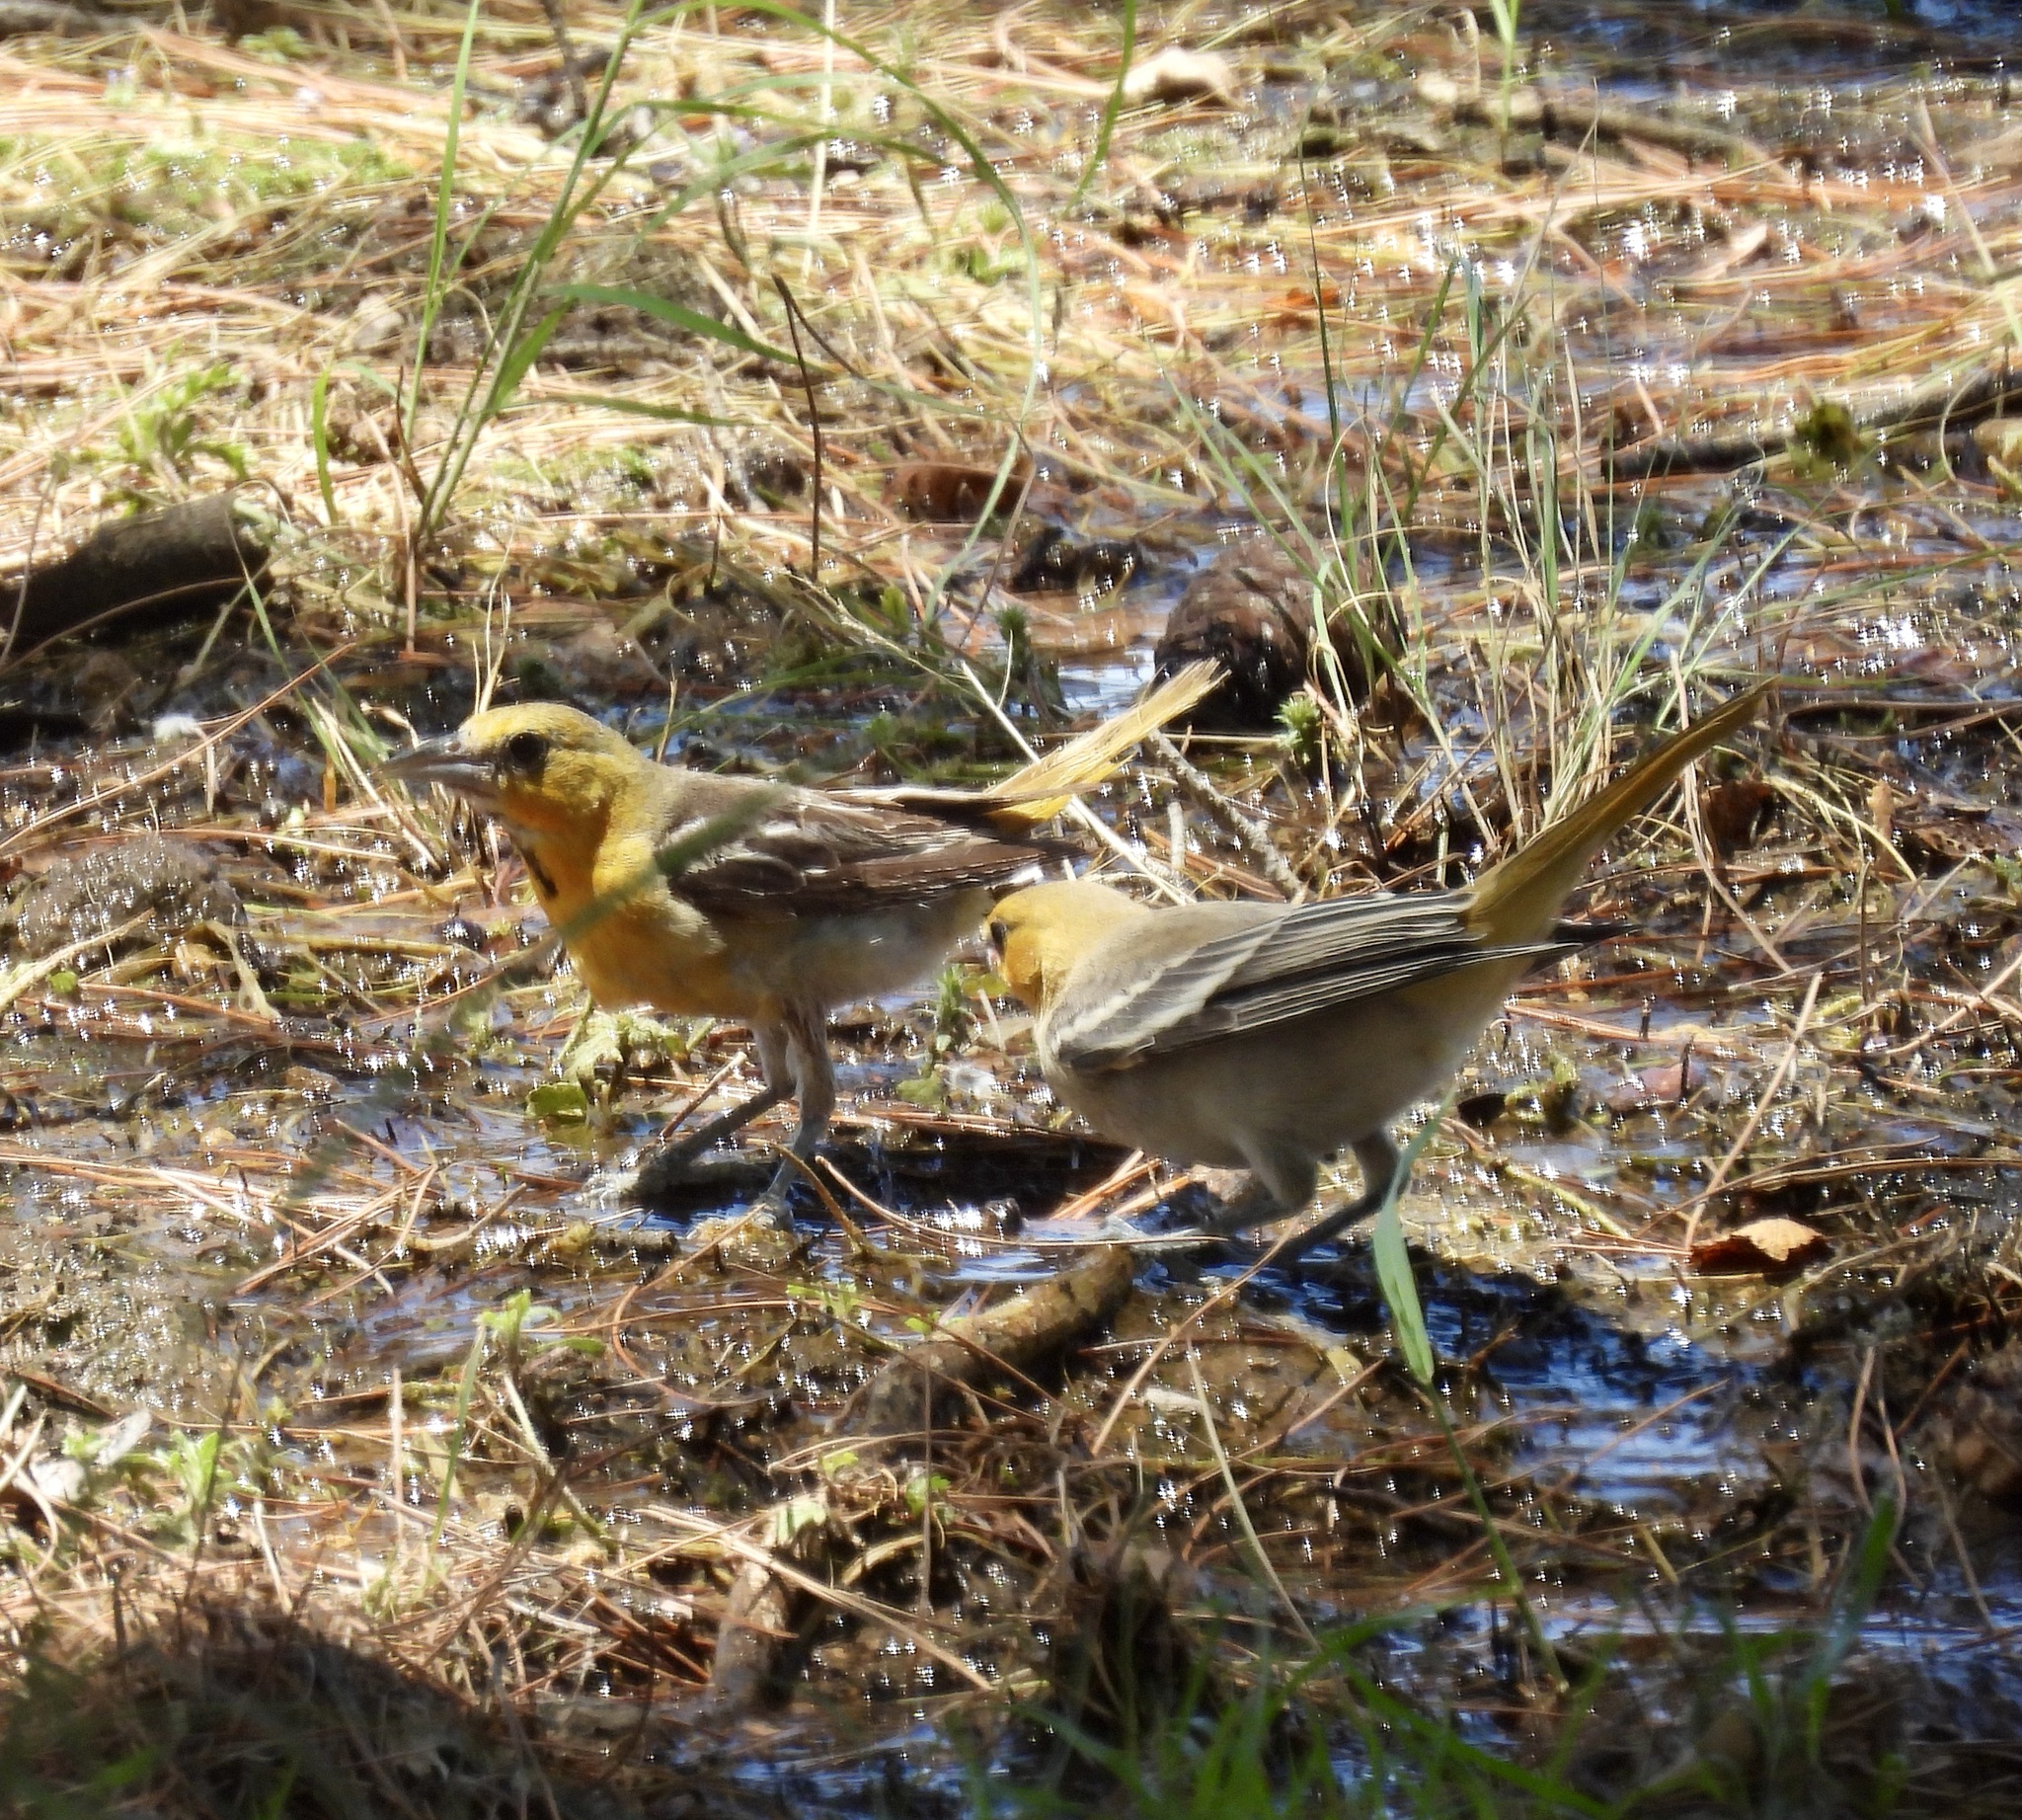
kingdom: Animalia
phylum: Chordata
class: Aves
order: Passeriformes
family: Icteridae
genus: Icterus
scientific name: Icterus bullockii
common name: Bullock's oriole
